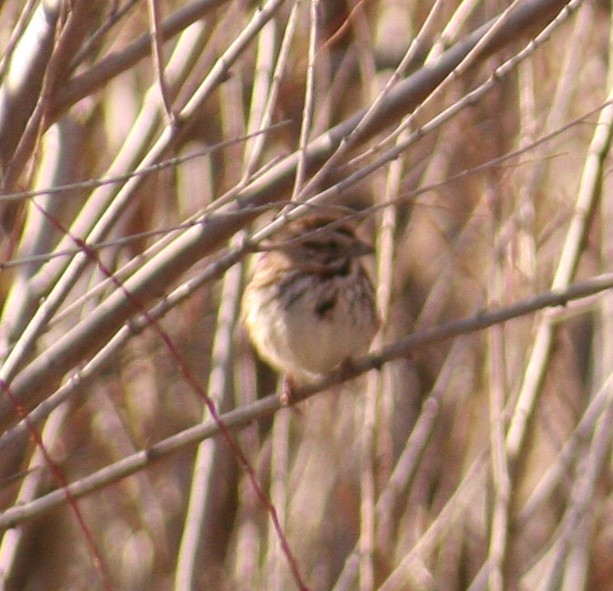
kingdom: Animalia
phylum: Chordata
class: Aves
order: Passeriformes
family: Passerellidae
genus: Melospiza
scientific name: Melospiza melodia
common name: Song sparrow
